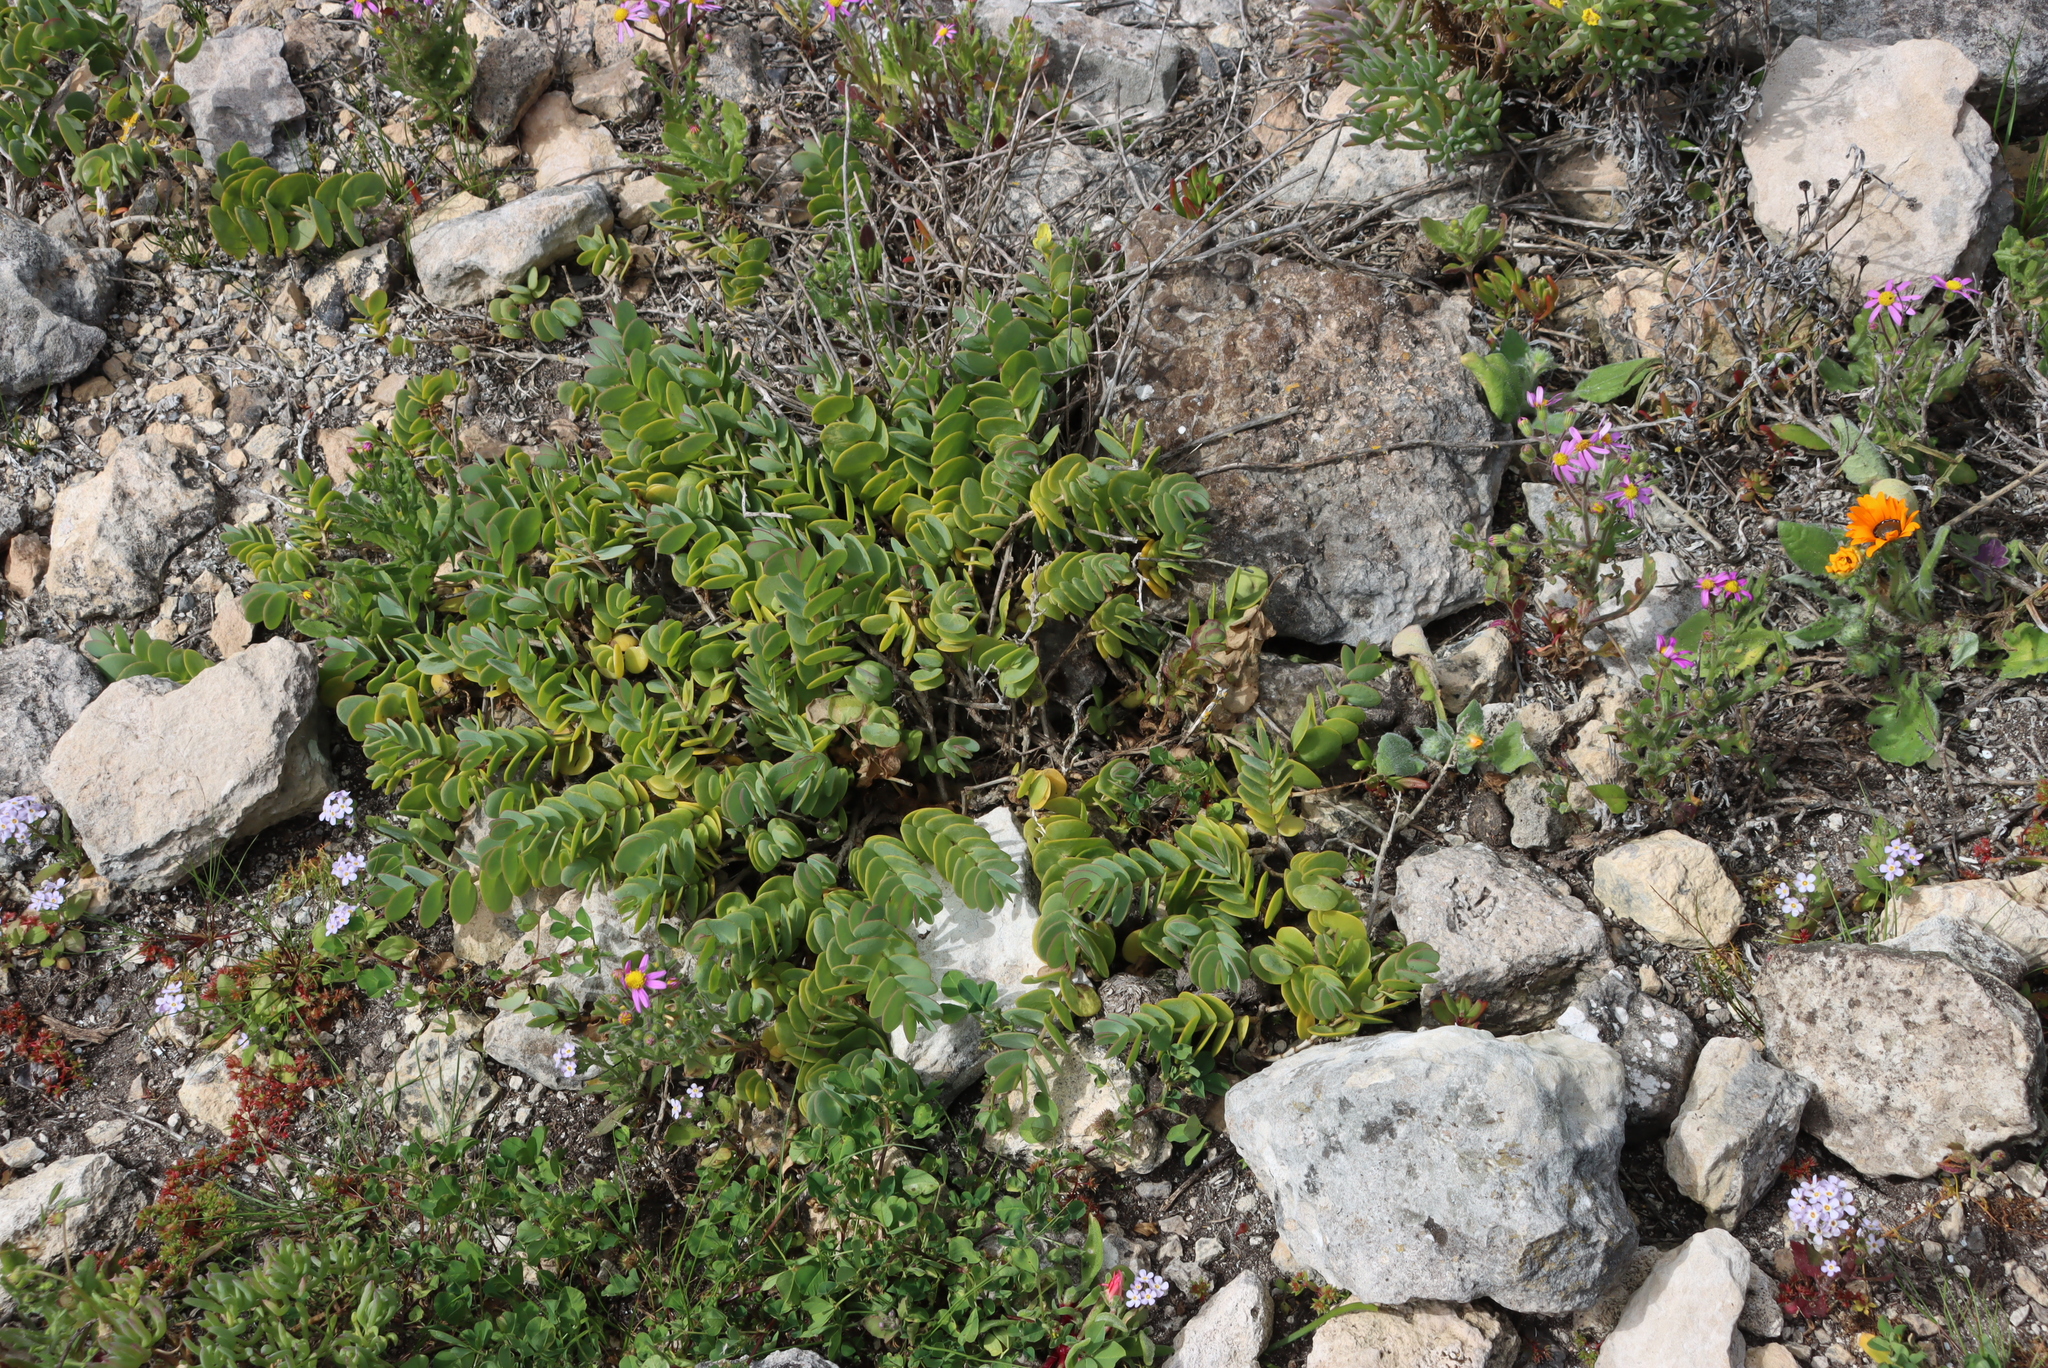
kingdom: Plantae
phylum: Tracheophyta
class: Magnoliopsida
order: Zygophyllales
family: Zygophyllaceae
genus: Roepera
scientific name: Roepera cordifolia
